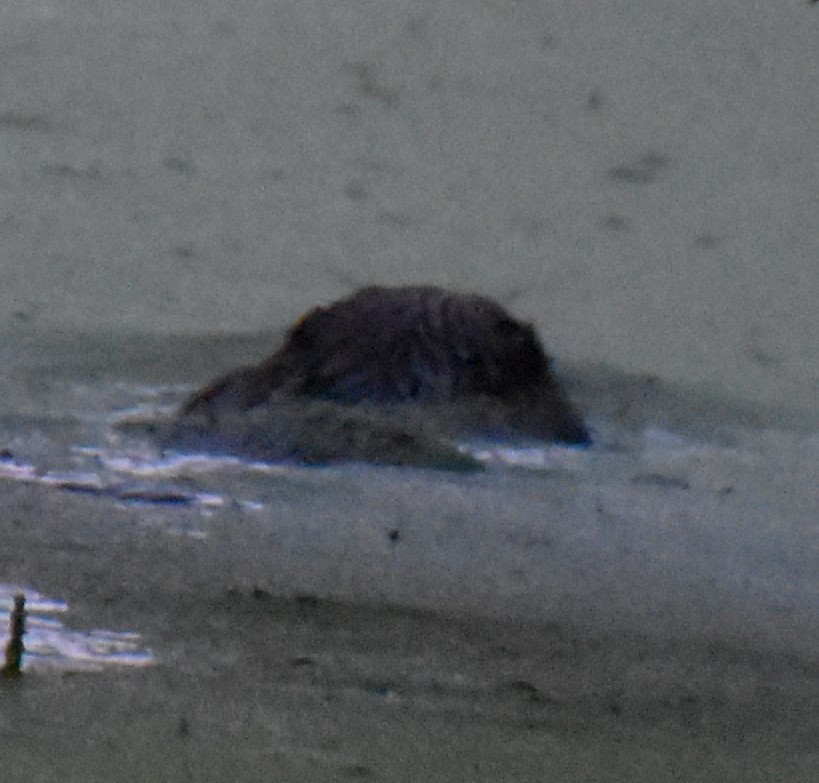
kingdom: Animalia
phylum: Chordata
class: Mammalia
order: Rodentia
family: Castoridae
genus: Castor
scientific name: Castor canadensis
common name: American beaver
